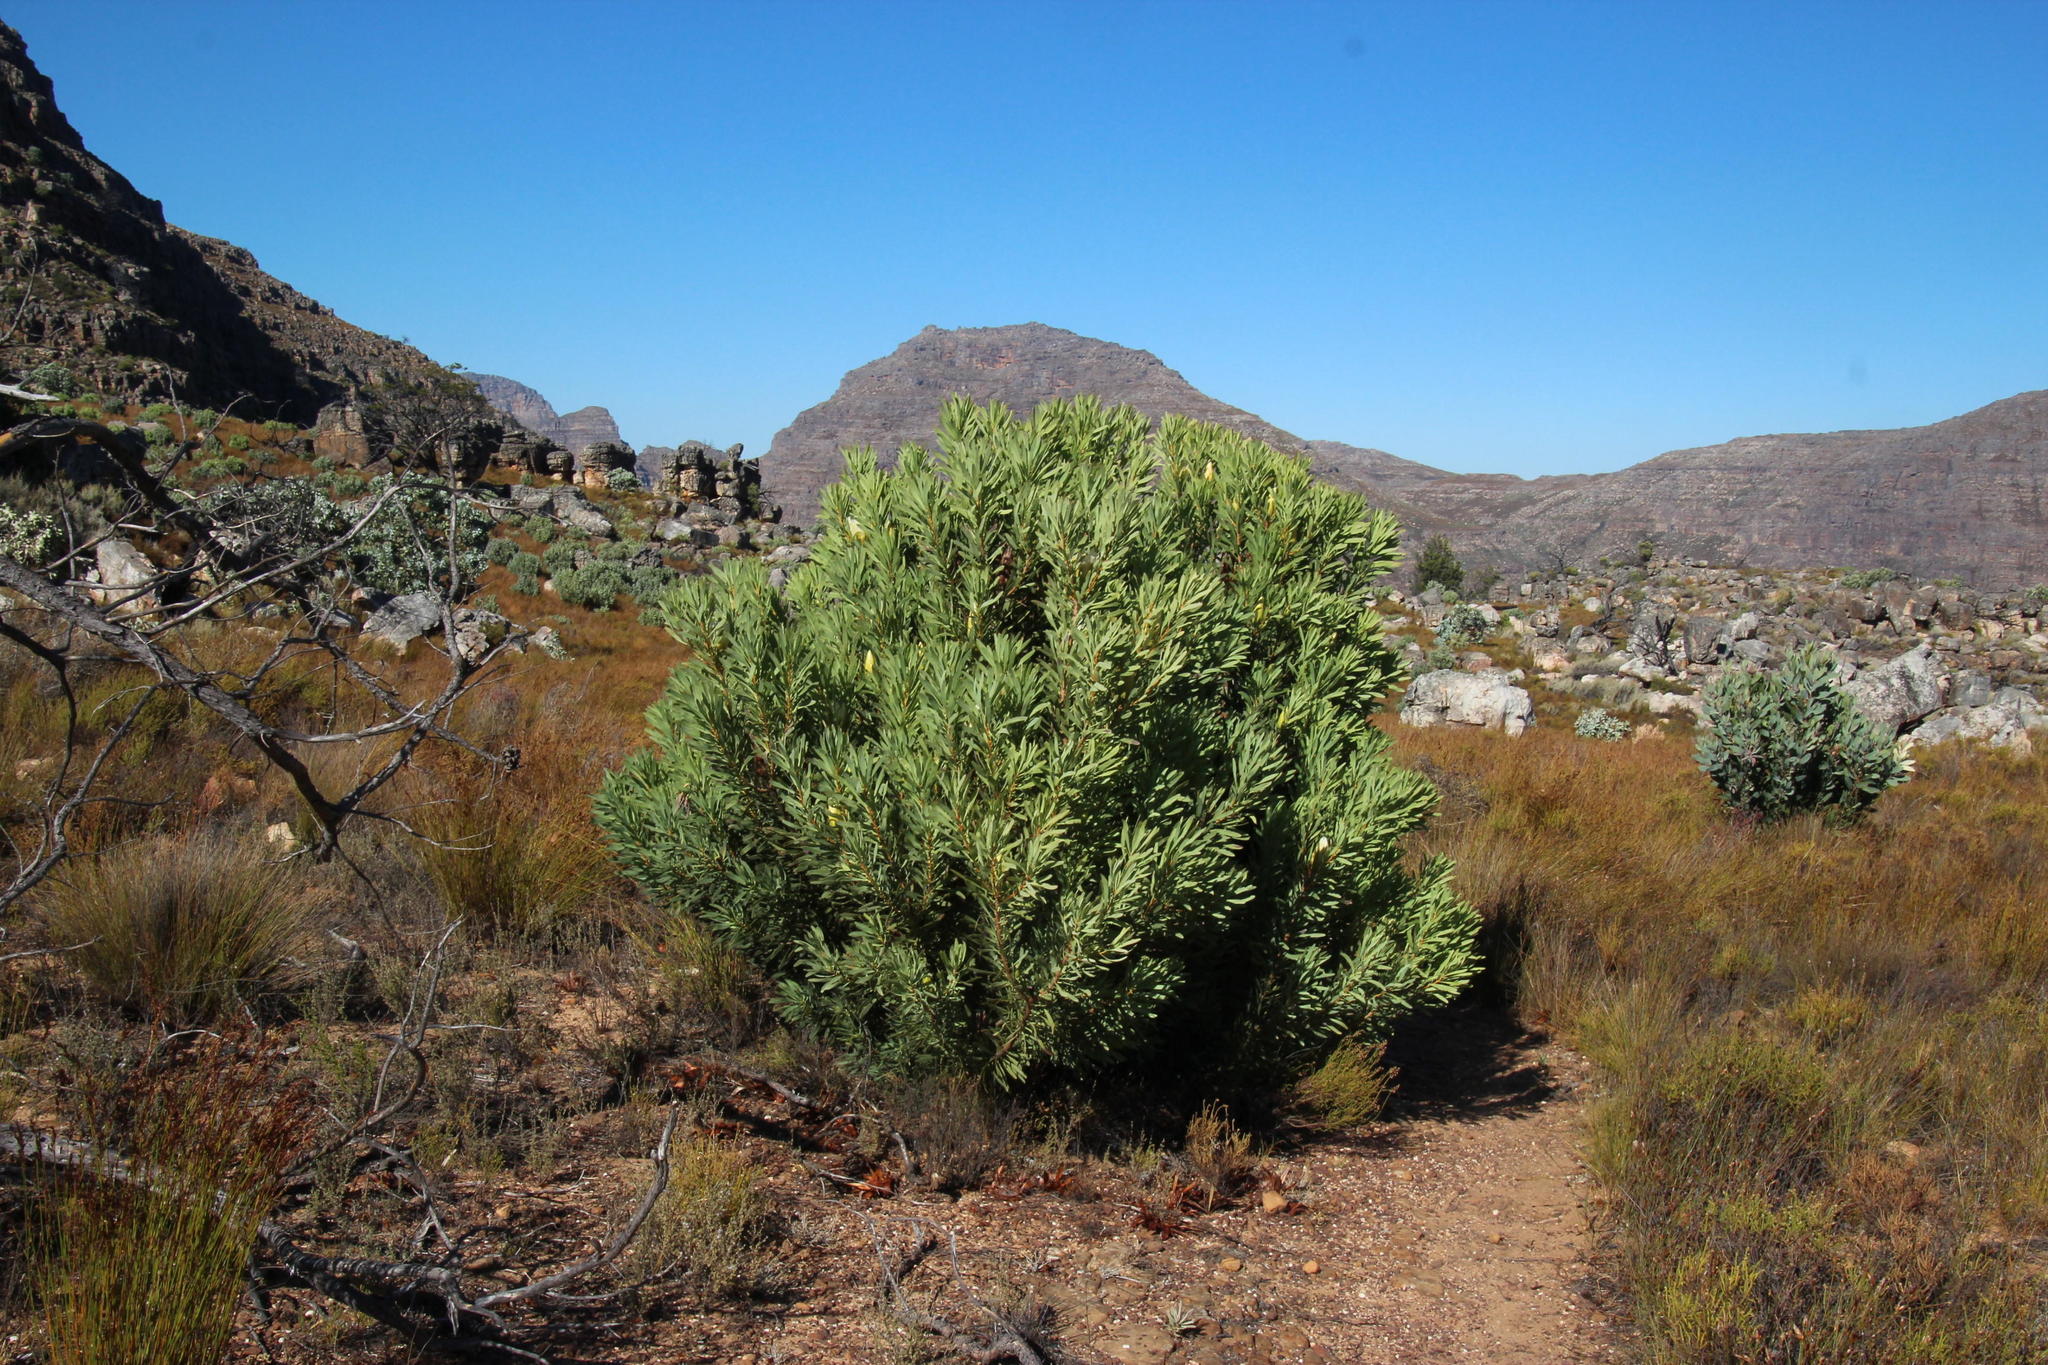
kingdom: Plantae
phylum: Tracheophyta
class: Magnoliopsida
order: Proteales
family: Proteaceae
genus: Protea
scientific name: Protea repens
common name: Sugarbush
